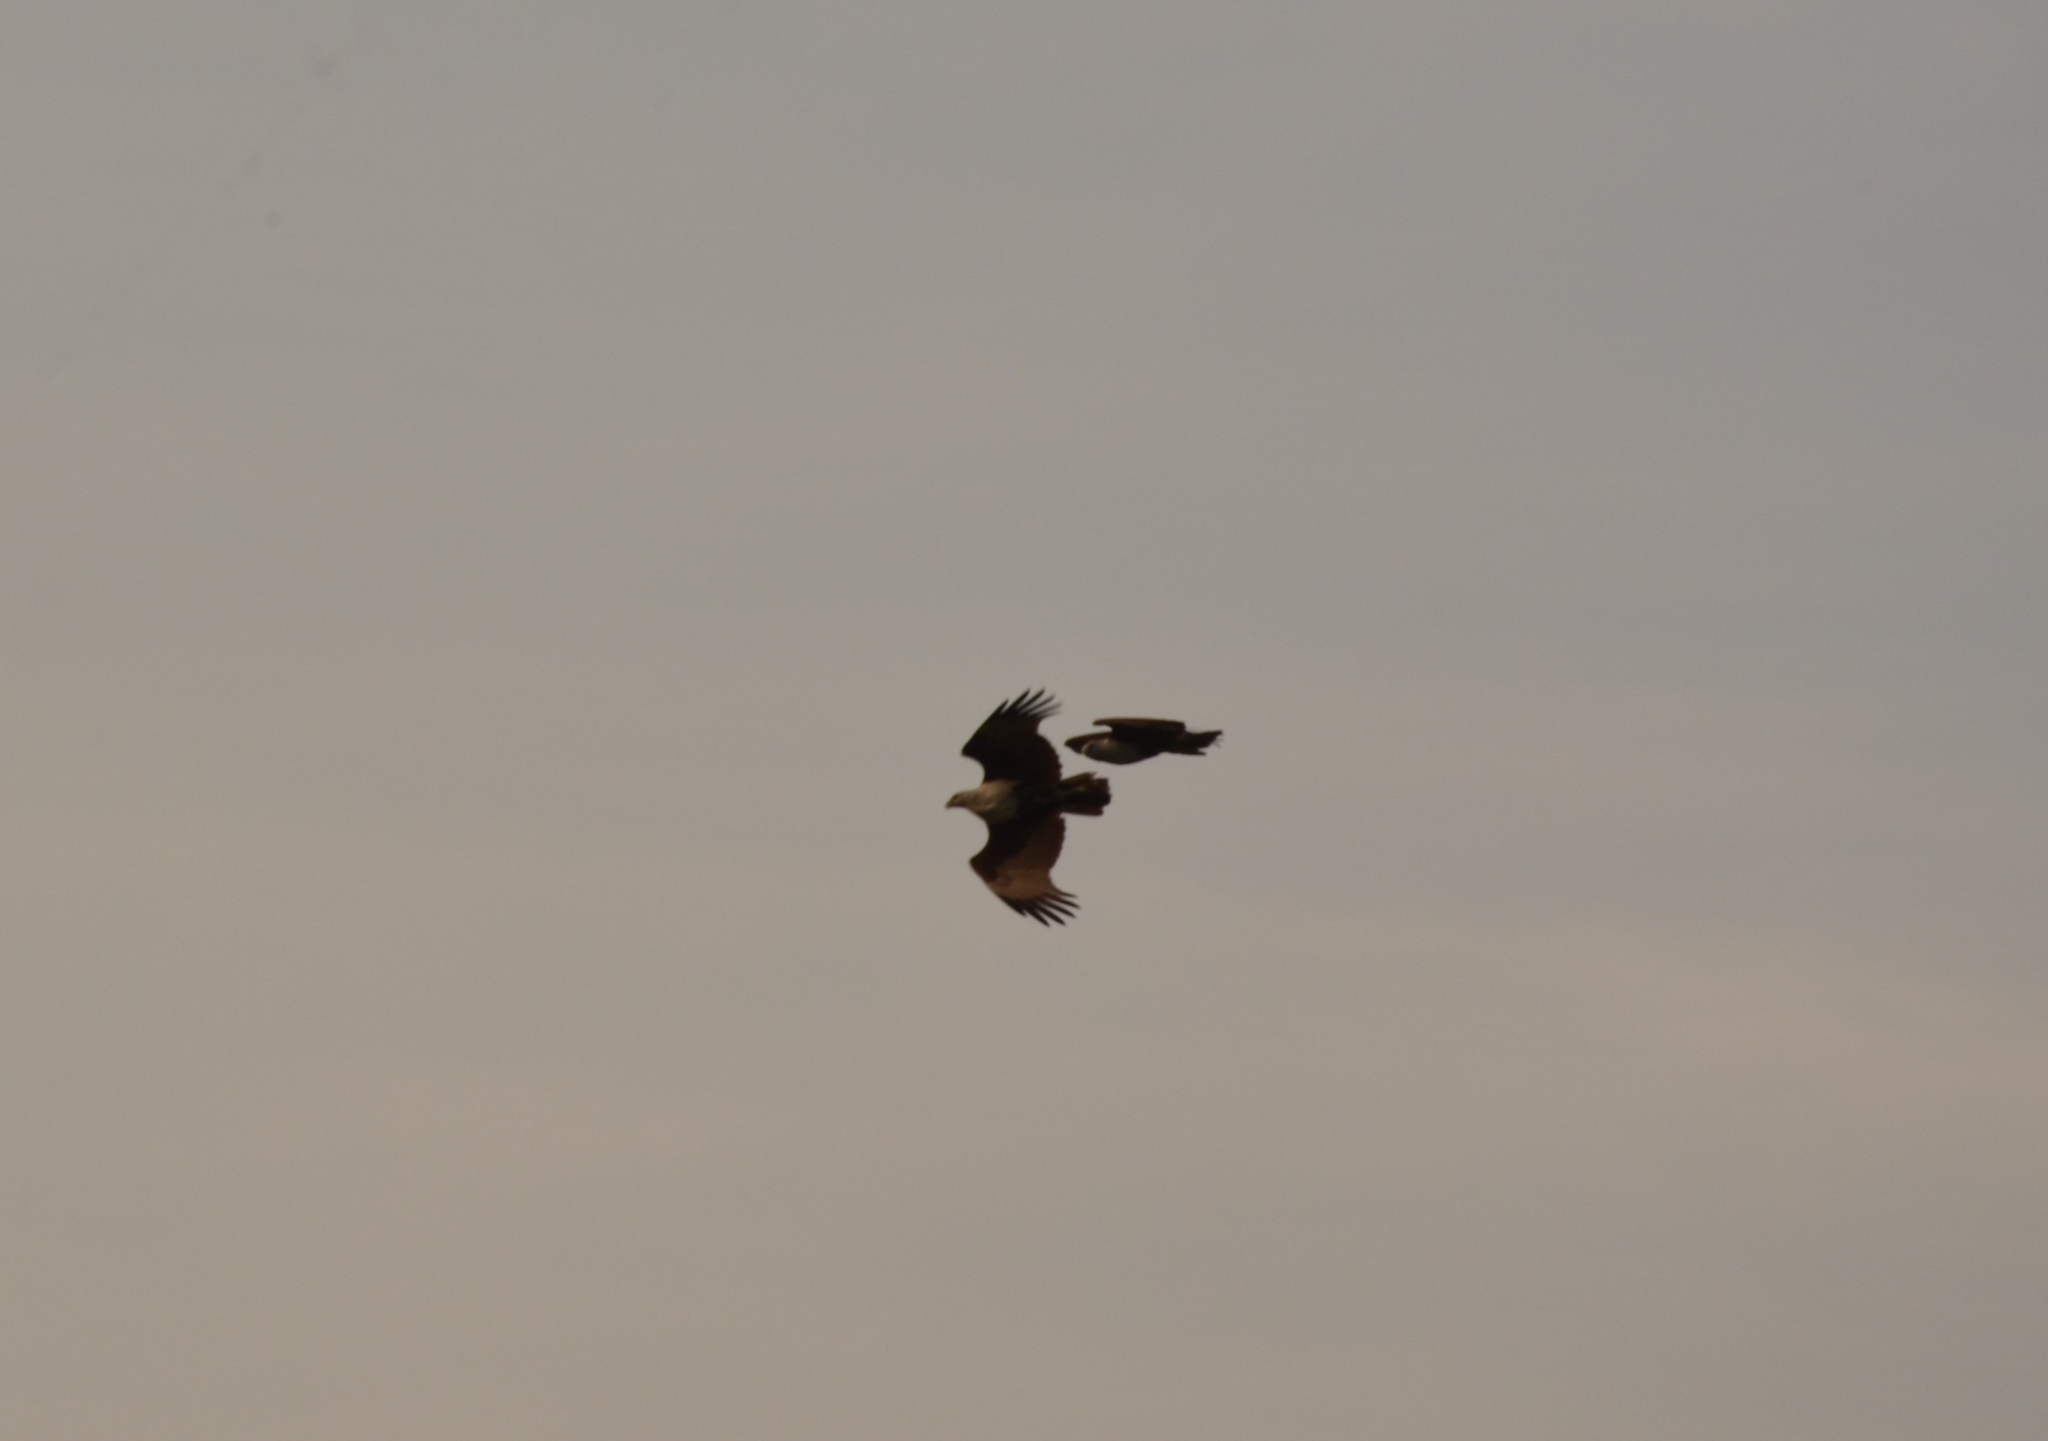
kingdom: Animalia
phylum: Chordata
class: Aves
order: Accipitriformes
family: Accipitridae
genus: Haliastur
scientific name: Haliastur indus
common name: Brahminy kite
